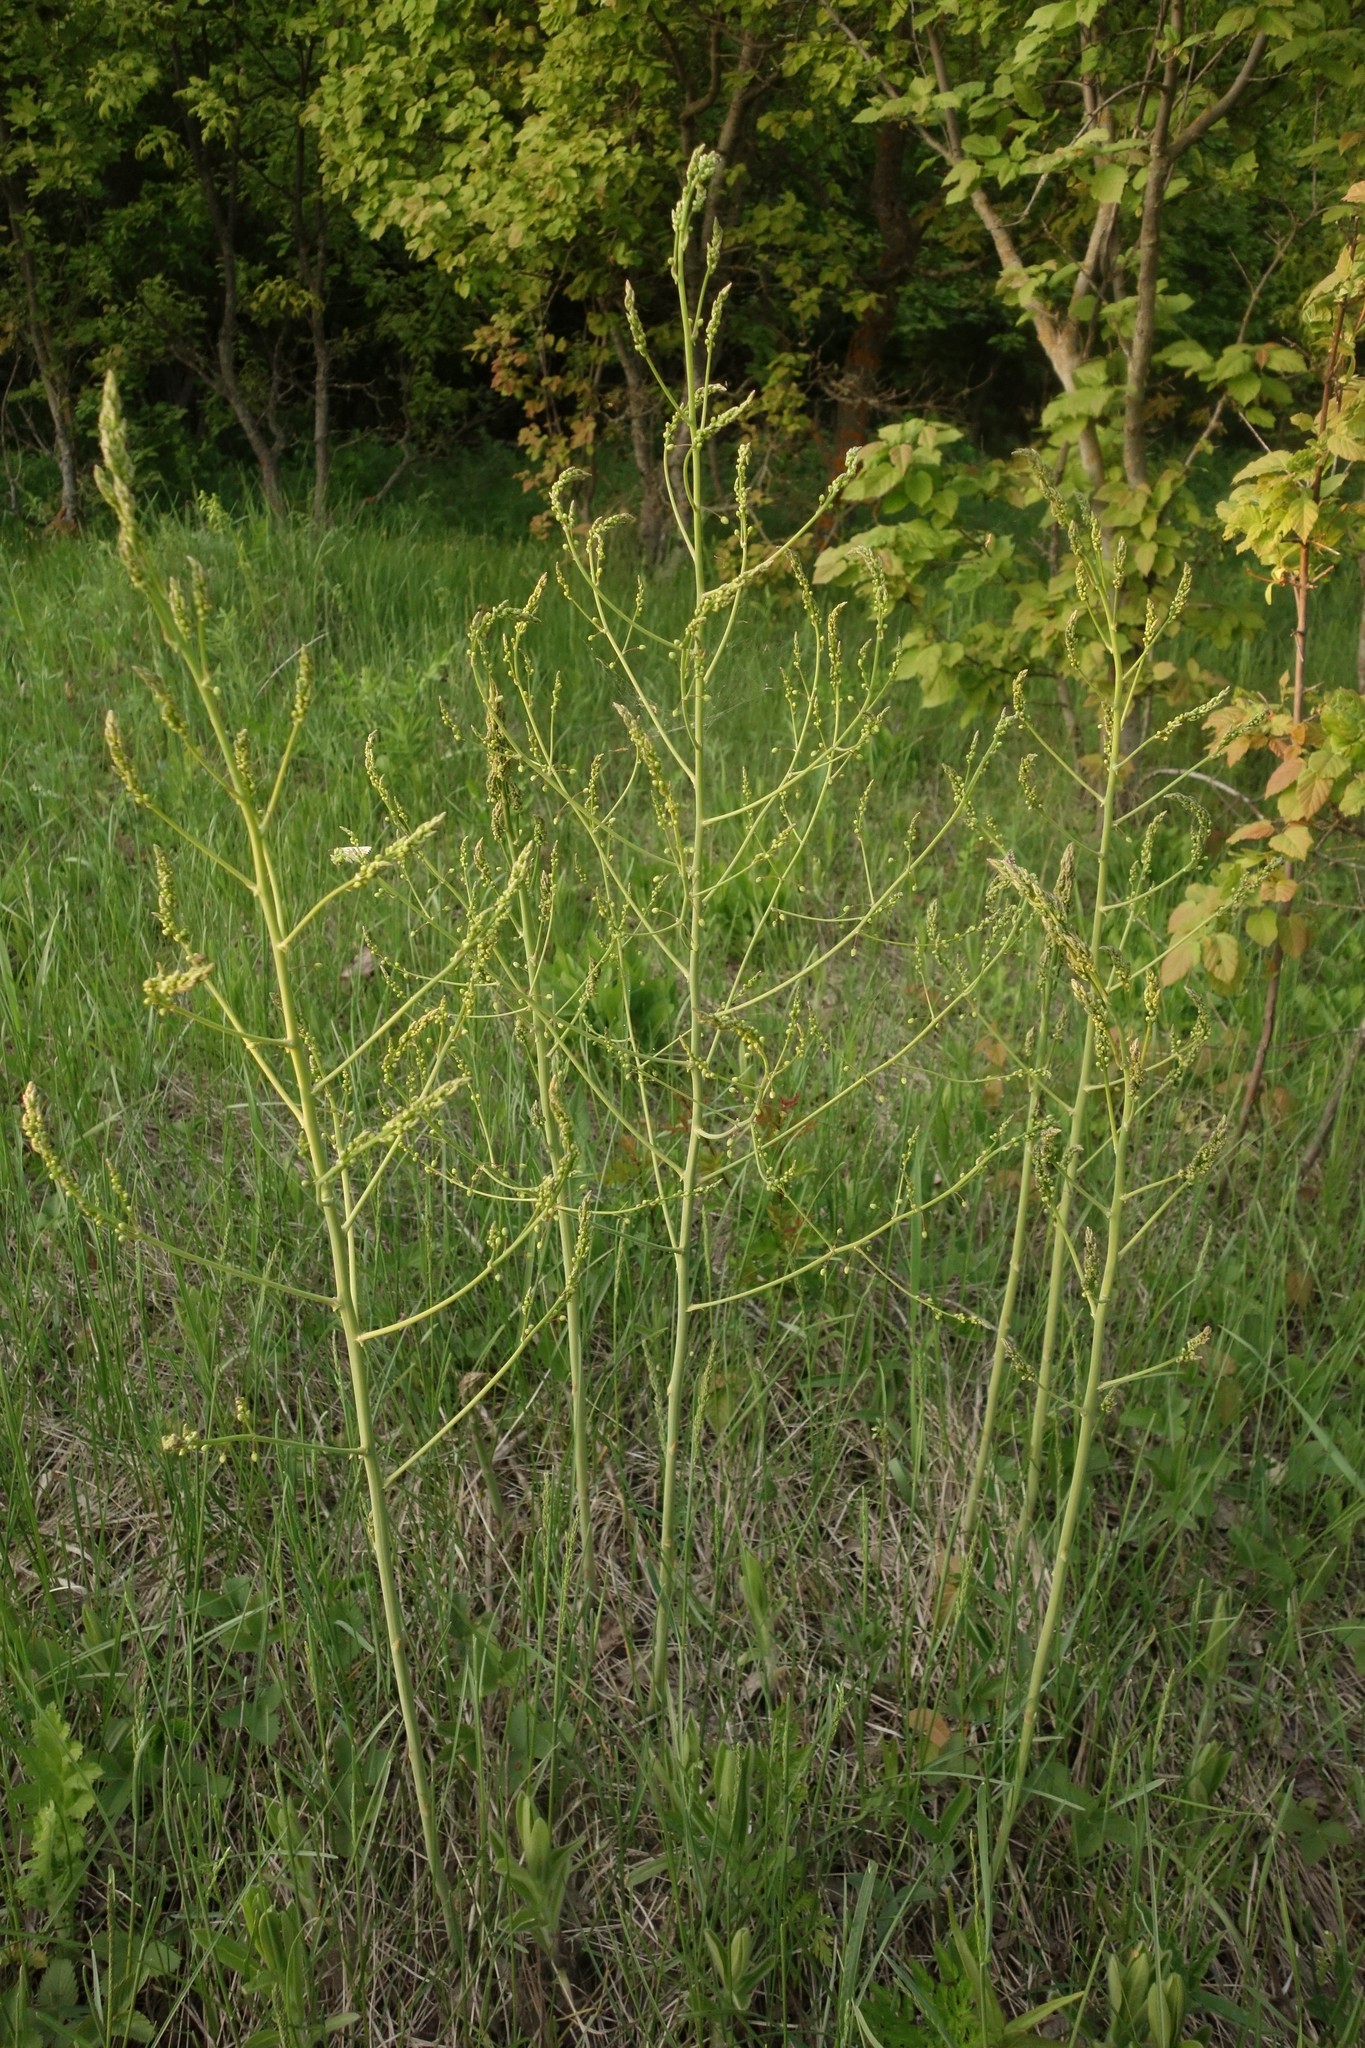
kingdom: Plantae
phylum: Tracheophyta
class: Liliopsida
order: Asparagales
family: Asparagaceae
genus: Asparagus
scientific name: Asparagus officinalis
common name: Garden asparagus
